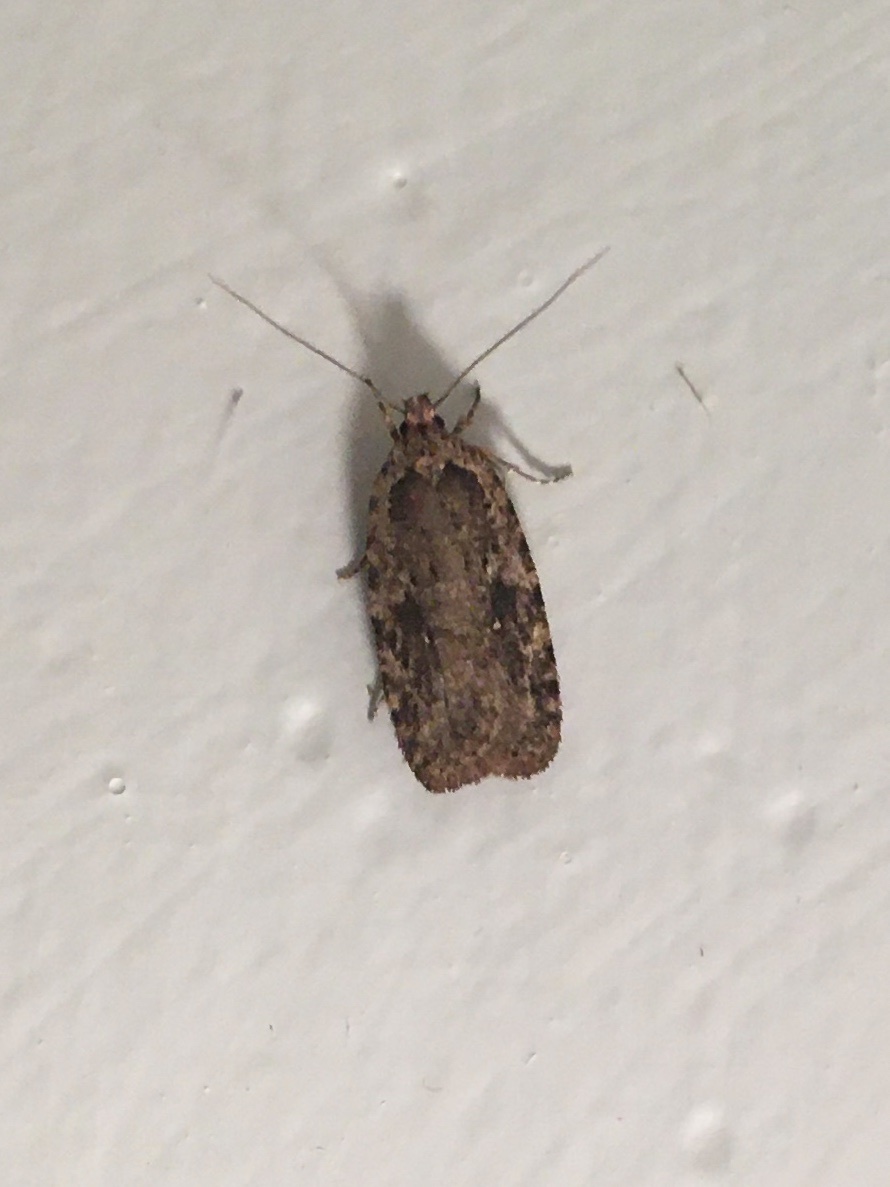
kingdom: Animalia
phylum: Arthropoda
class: Insecta
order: Lepidoptera
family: Depressariidae
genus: Agonopterix
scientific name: Agonopterix pulvipennella
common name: Goldenrod leafffolder
